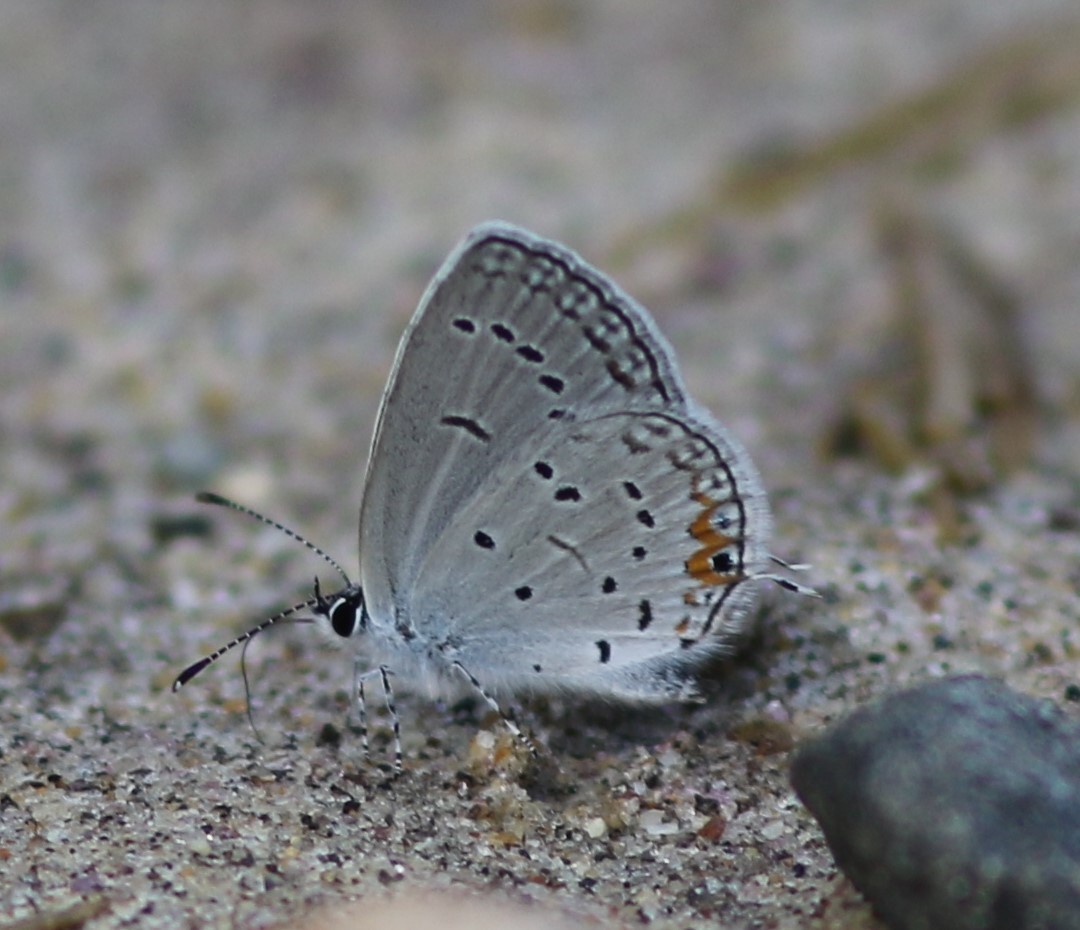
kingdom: Animalia
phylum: Arthropoda
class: Insecta
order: Lepidoptera
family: Lycaenidae
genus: Elkalyce
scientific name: Elkalyce comyntas
